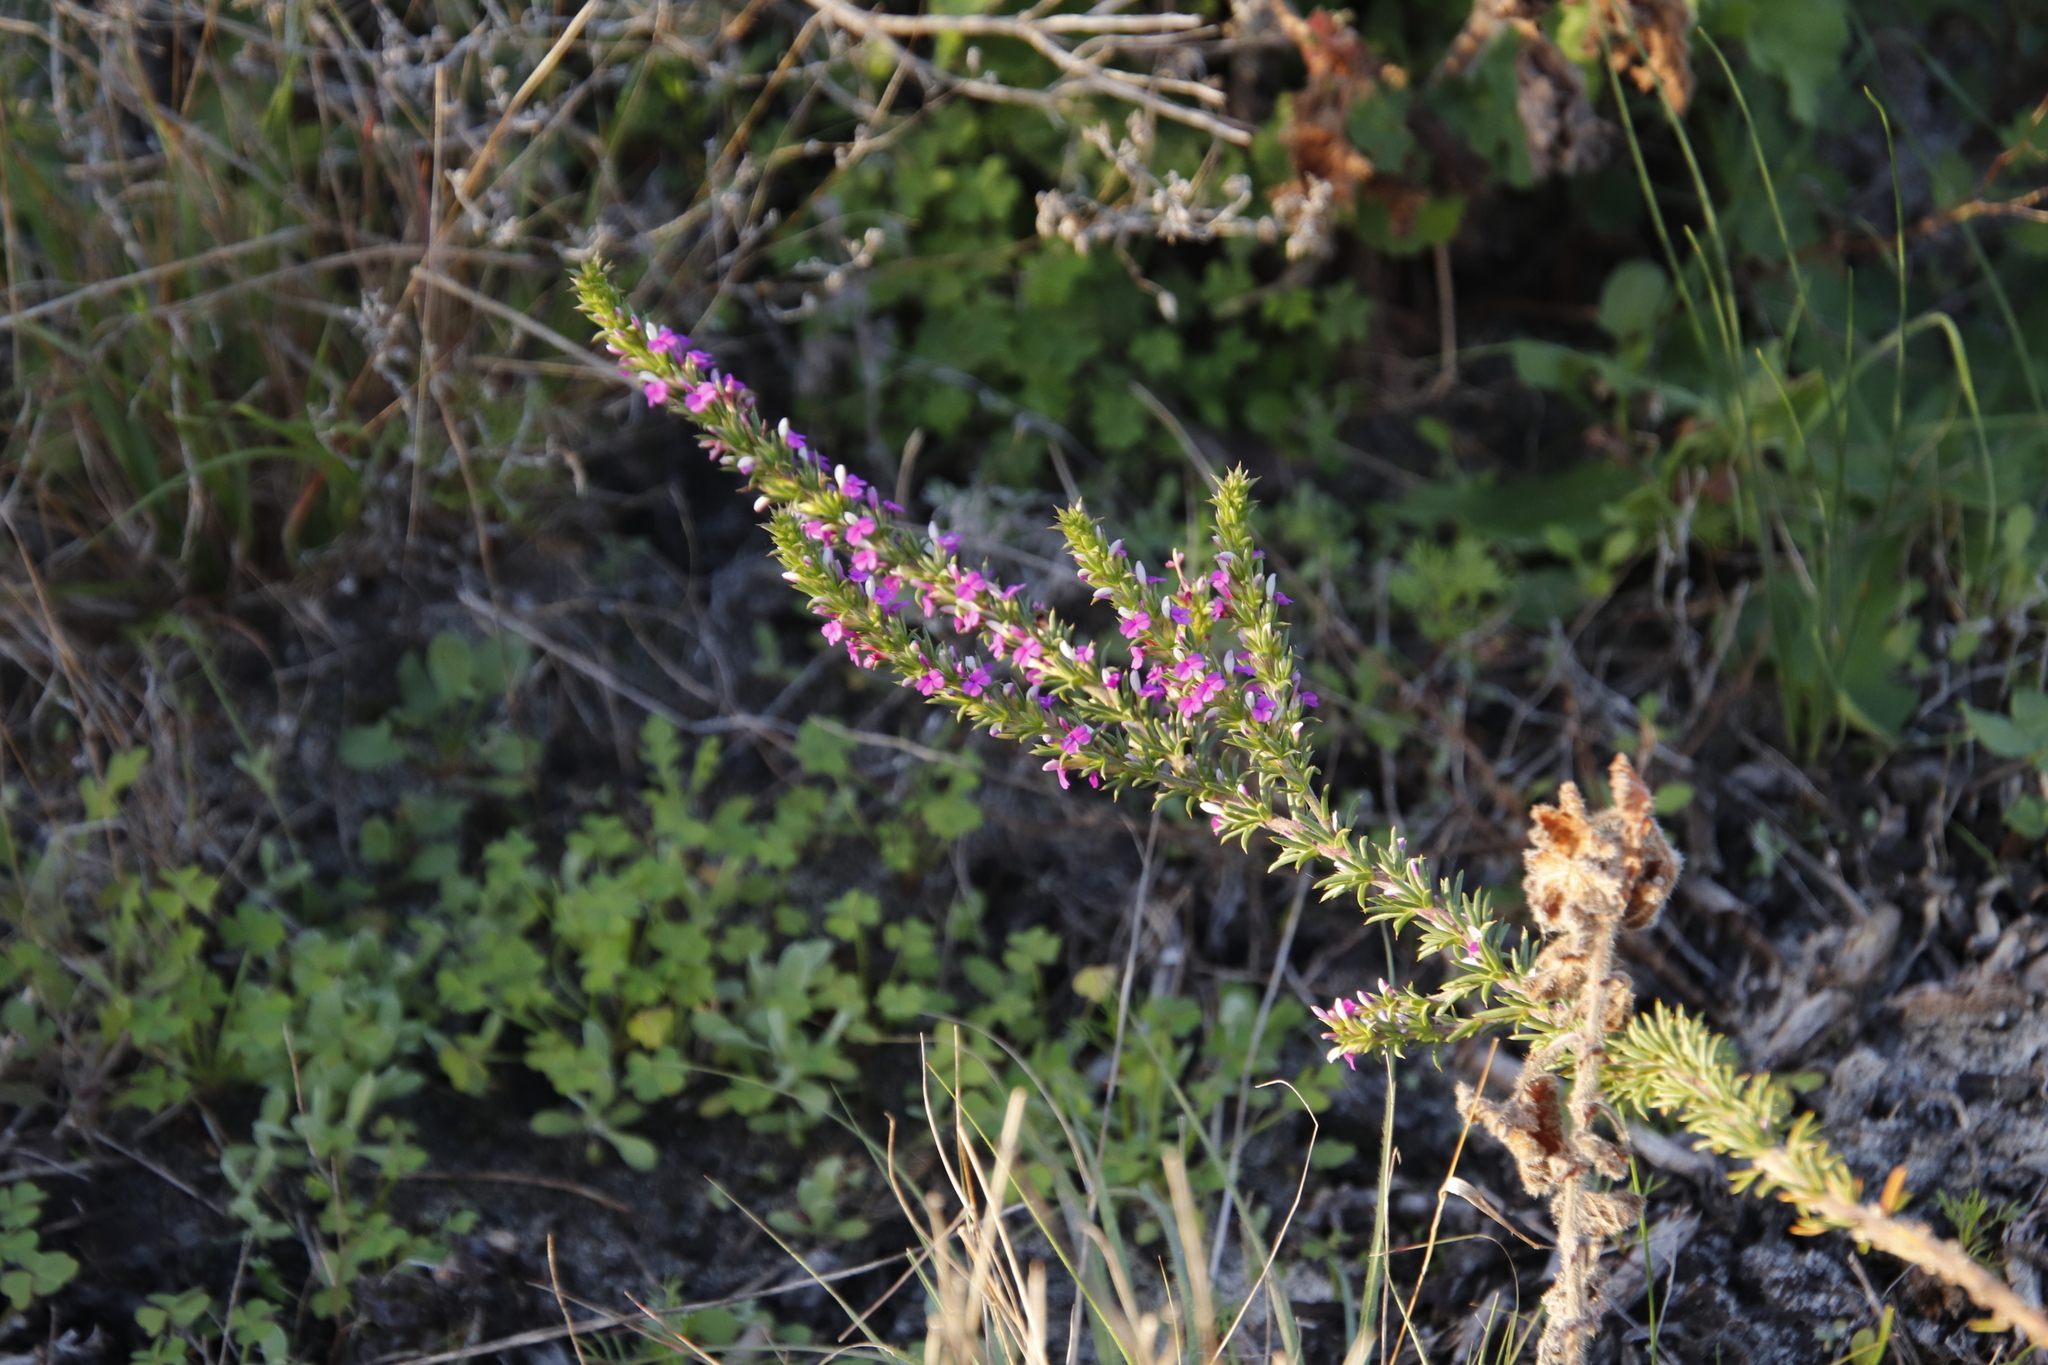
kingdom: Plantae
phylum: Tracheophyta
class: Magnoliopsida
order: Fabales
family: Polygalaceae
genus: Muraltia
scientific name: Muraltia heisteria
